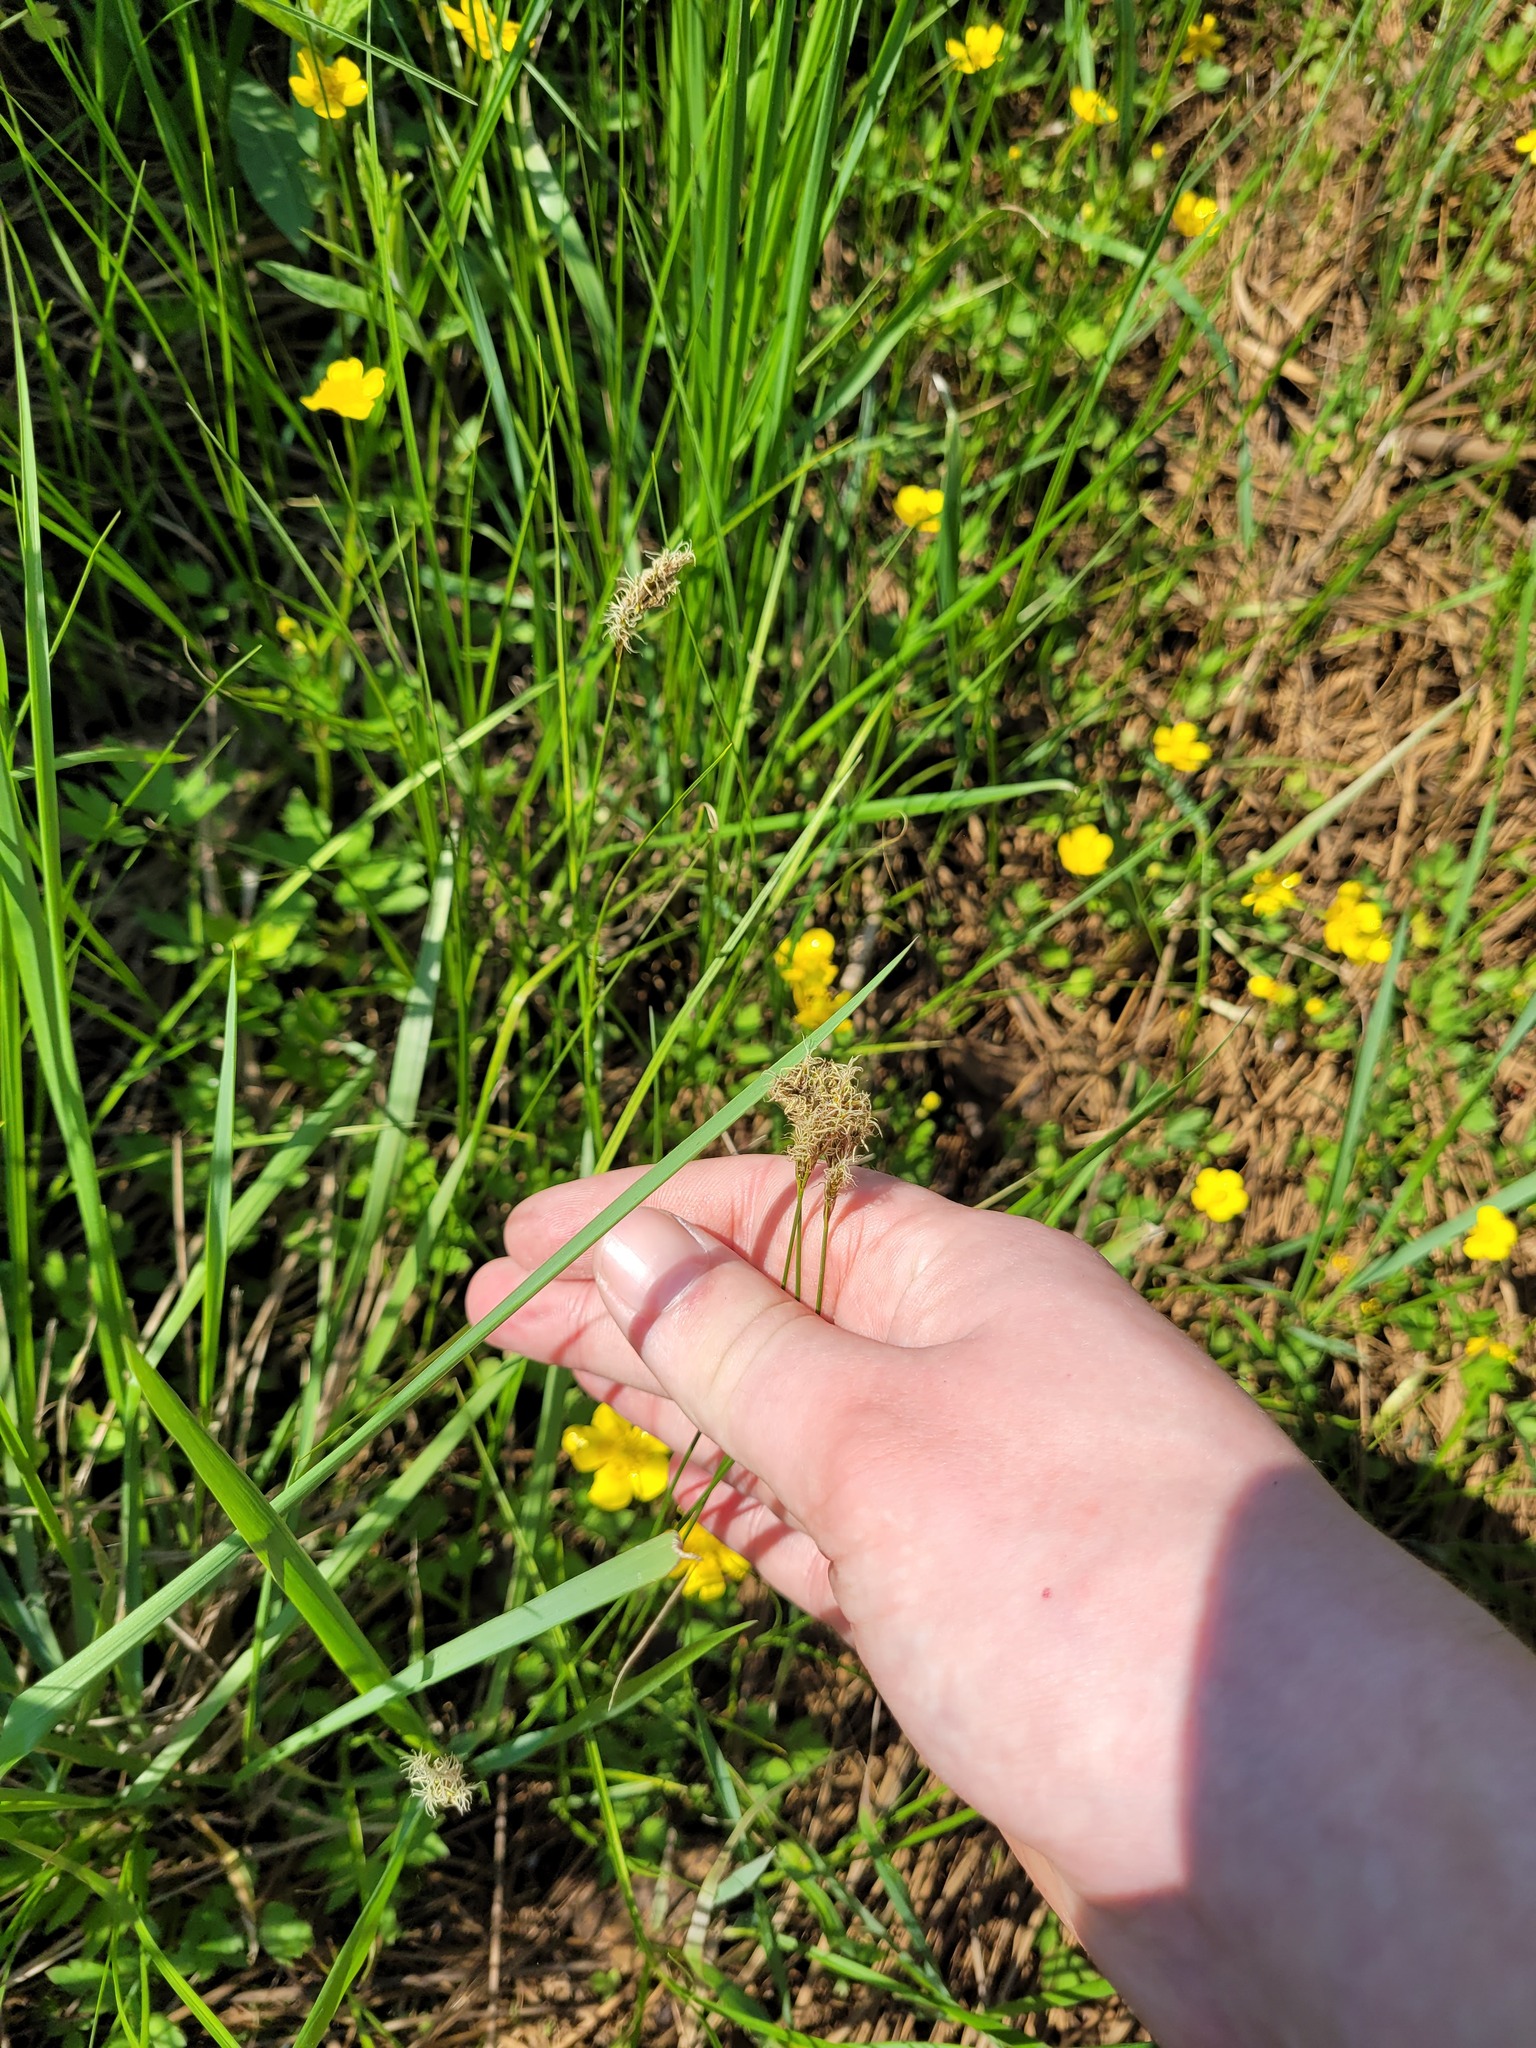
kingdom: Plantae
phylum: Tracheophyta
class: Liliopsida
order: Poales
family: Cyperaceae
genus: Carex
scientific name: Carex praecox
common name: Early sedge
